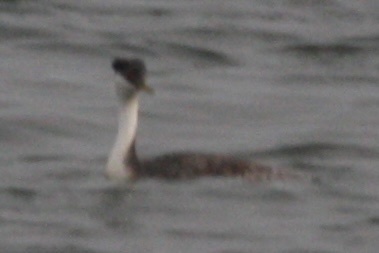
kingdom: Animalia
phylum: Chordata
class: Aves
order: Podicipediformes
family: Podicipedidae
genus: Aechmophorus
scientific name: Aechmophorus occidentalis
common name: Western grebe
